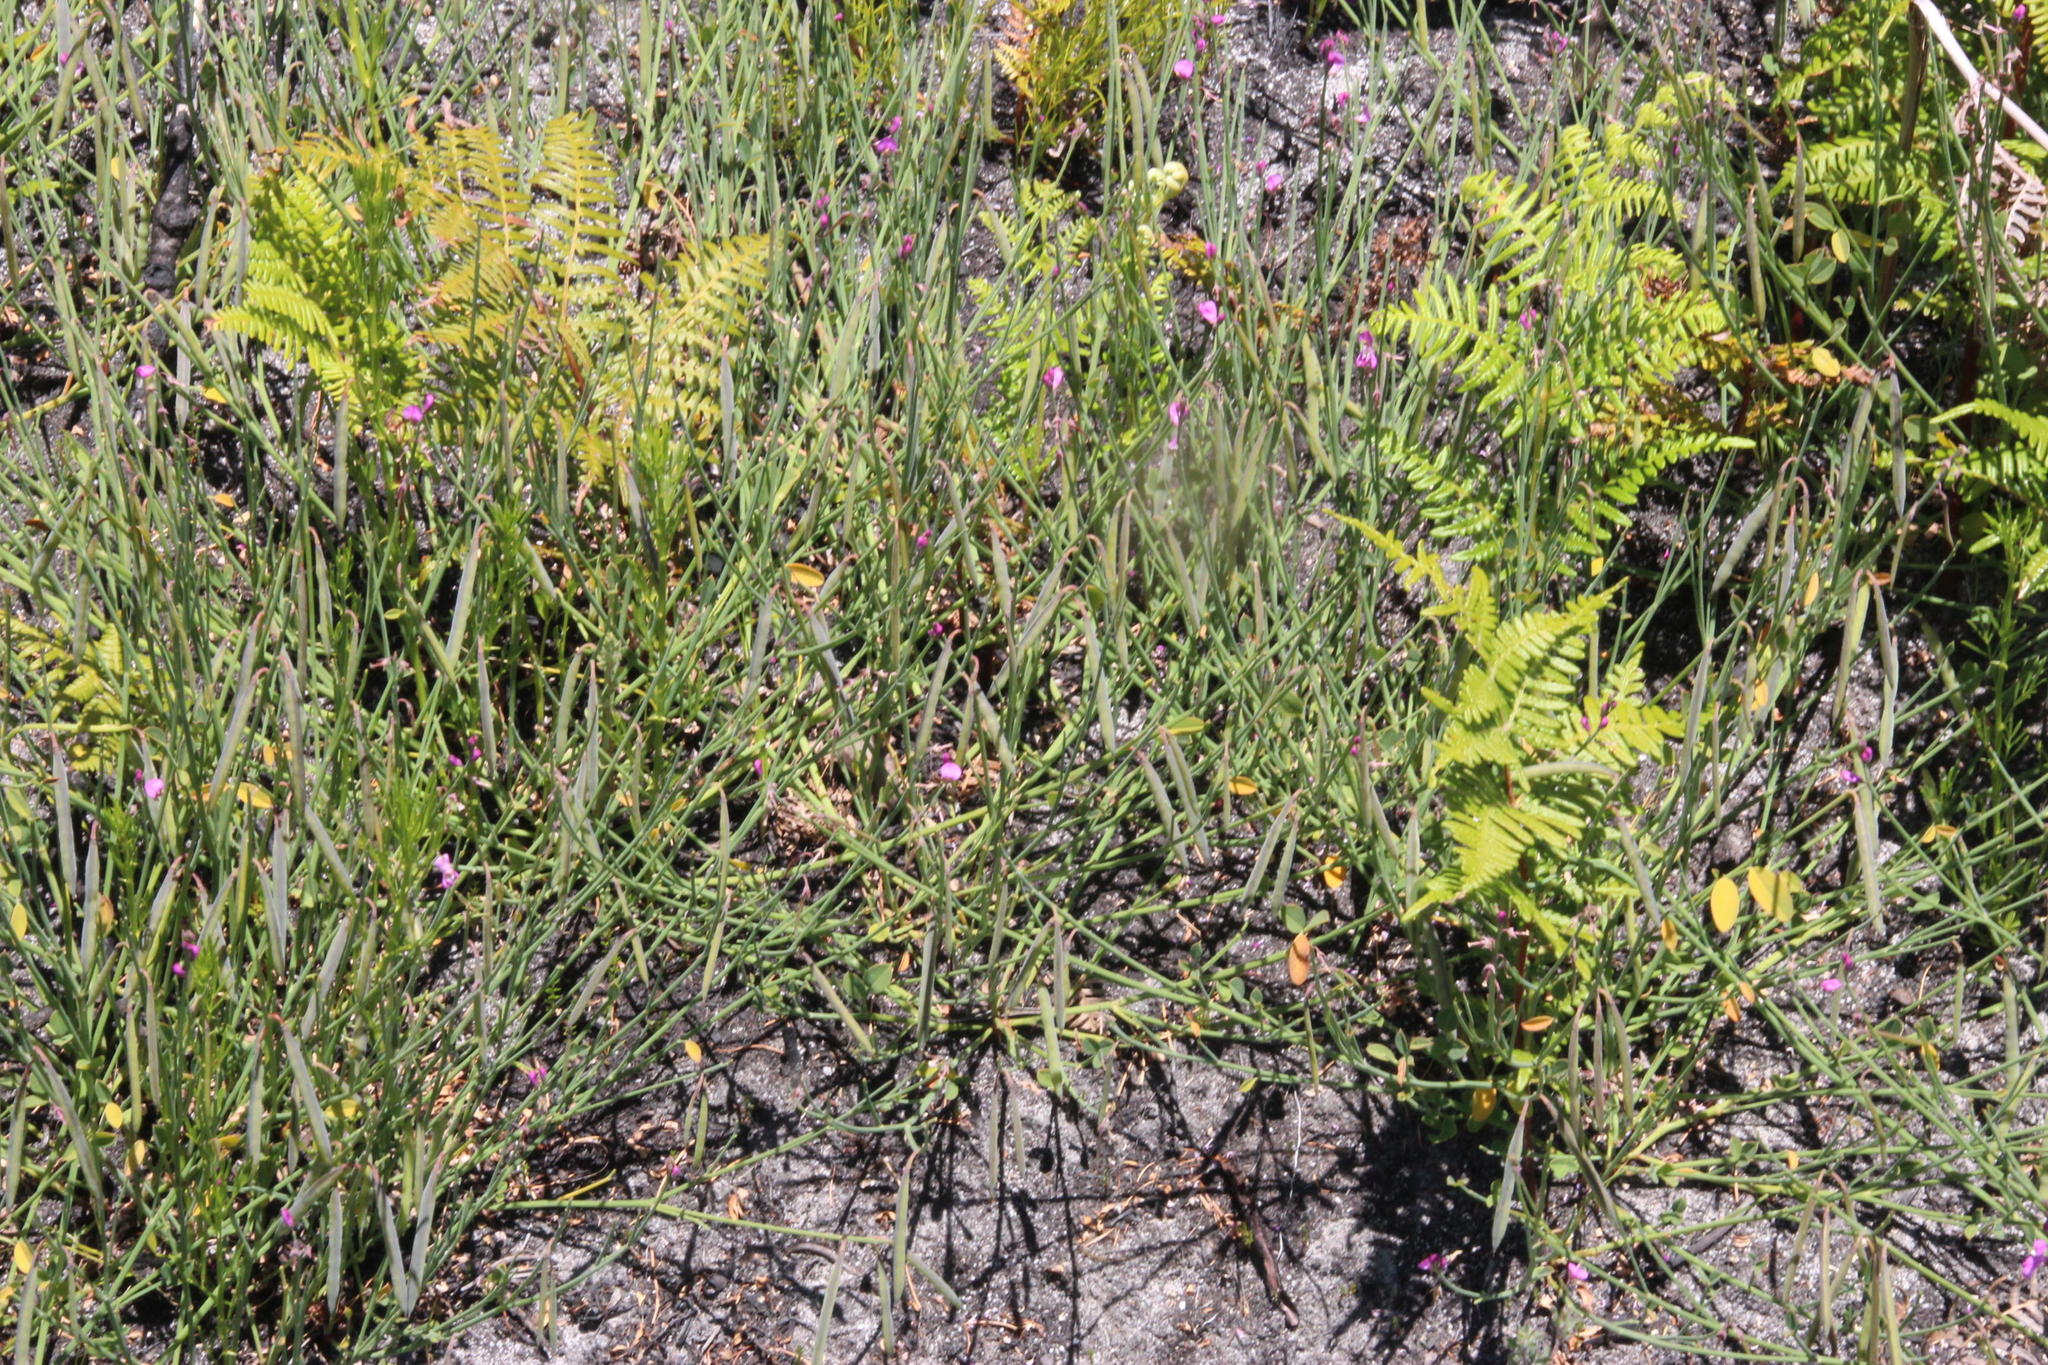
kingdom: Plantae
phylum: Tracheophyta
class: Magnoliopsida
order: Fabales
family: Fabaceae
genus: Indigofera
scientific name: Indigofera ionii
